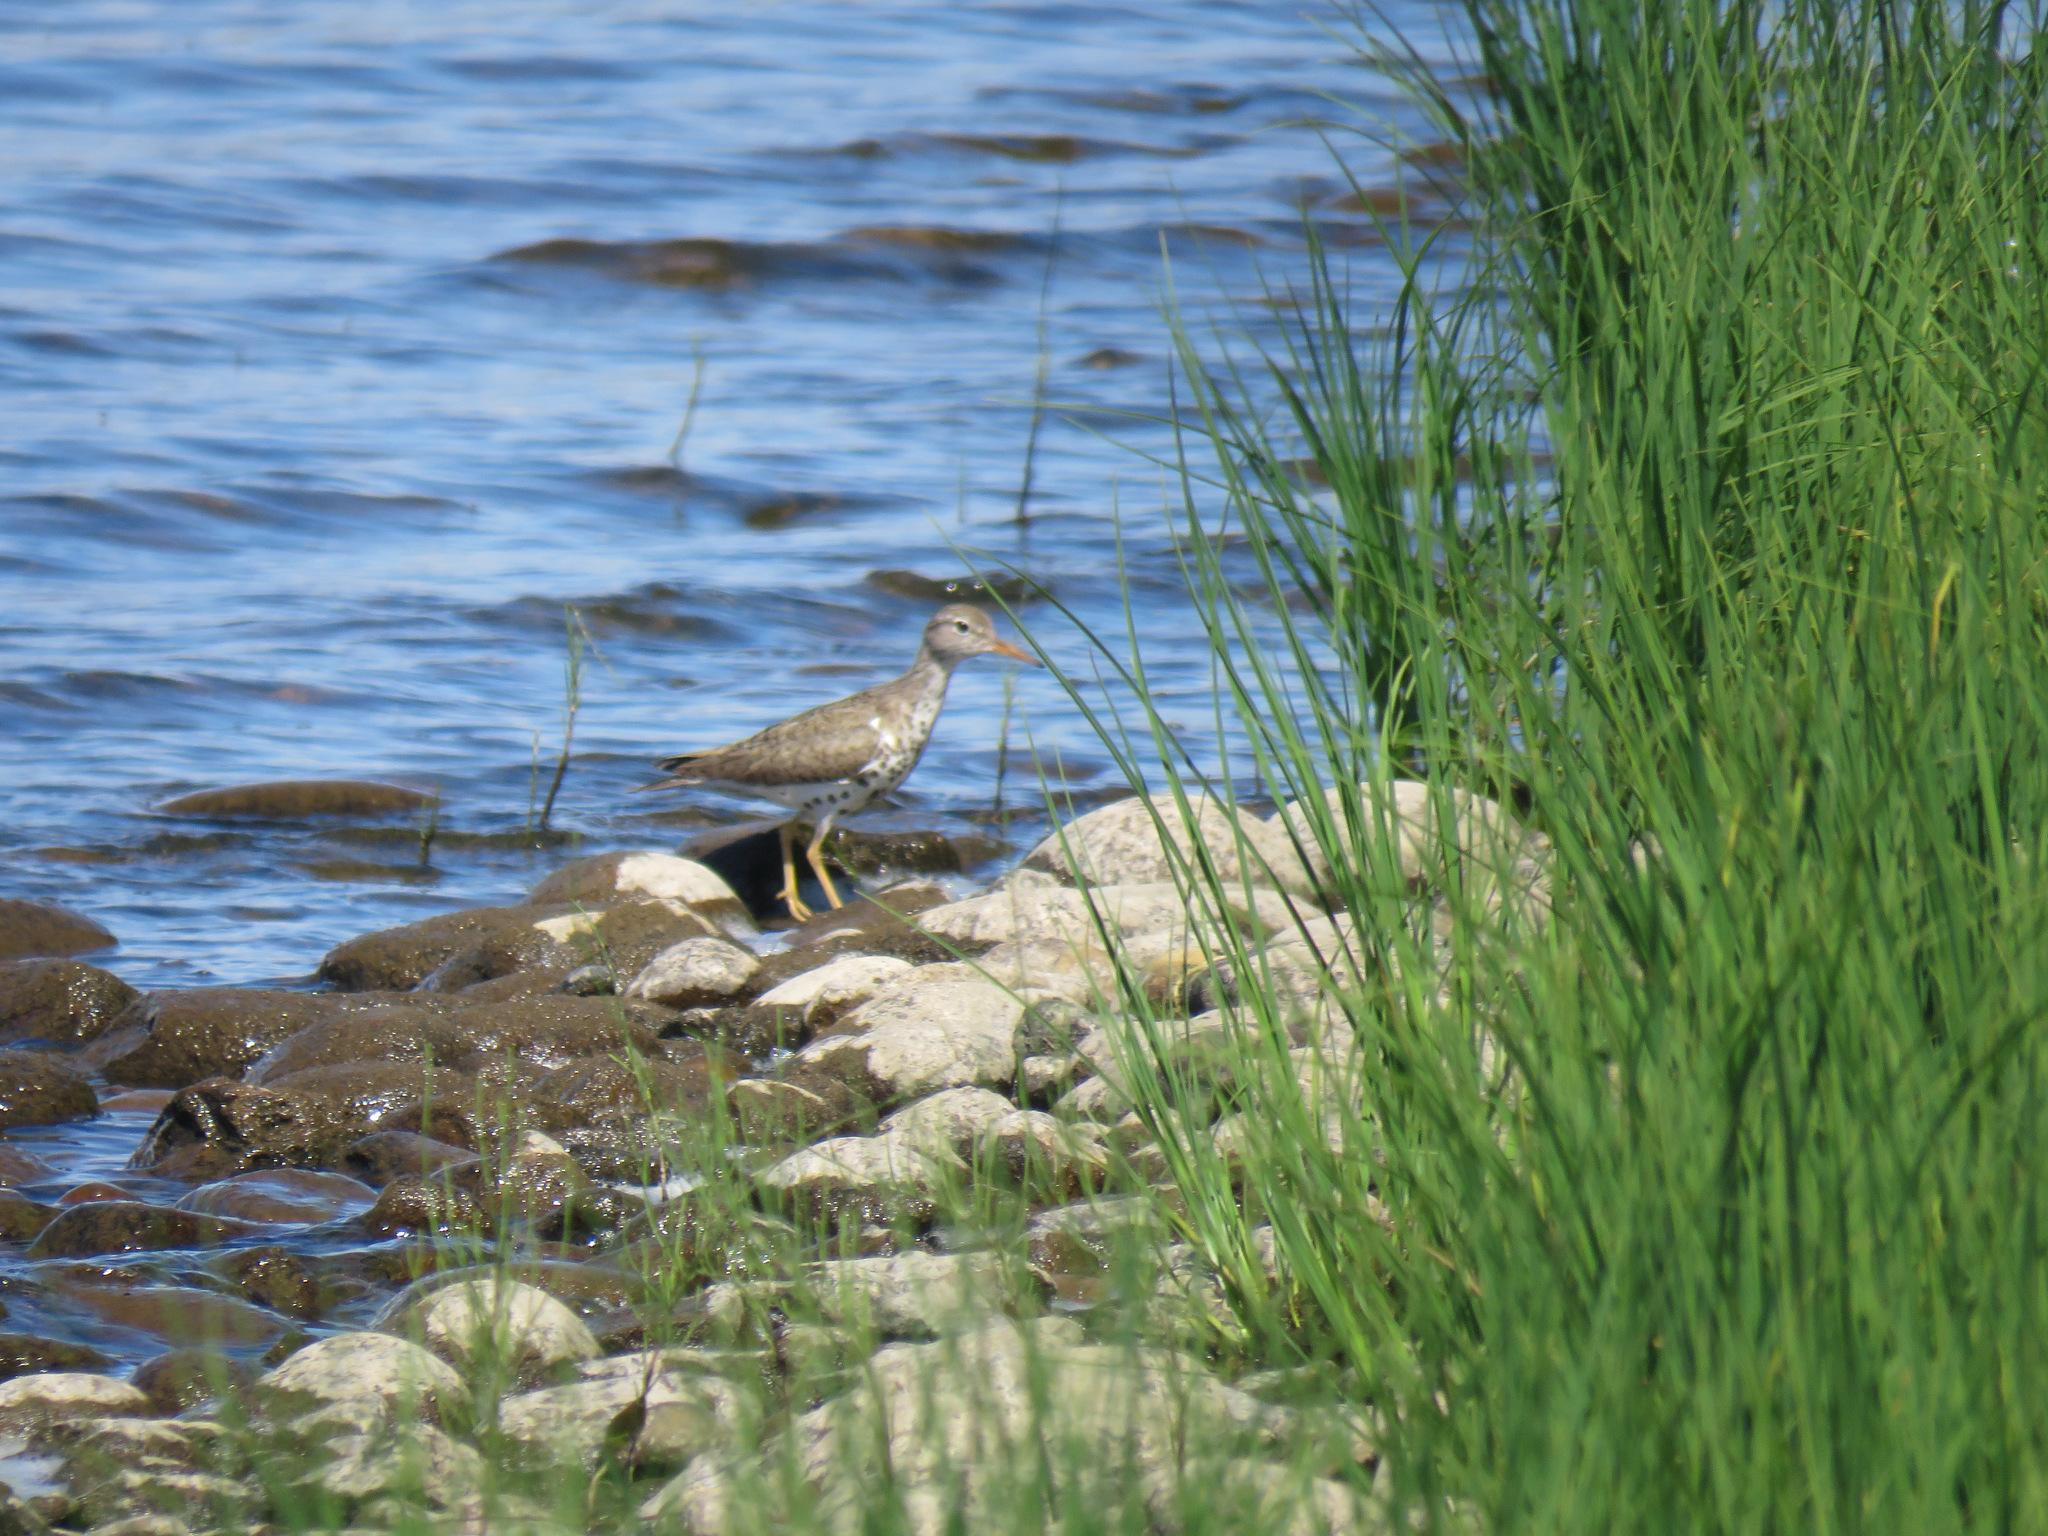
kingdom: Animalia
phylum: Chordata
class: Aves
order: Charadriiformes
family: Scolopacidae
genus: Actitis
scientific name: Actitis macularius
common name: Spotted sandpiper
